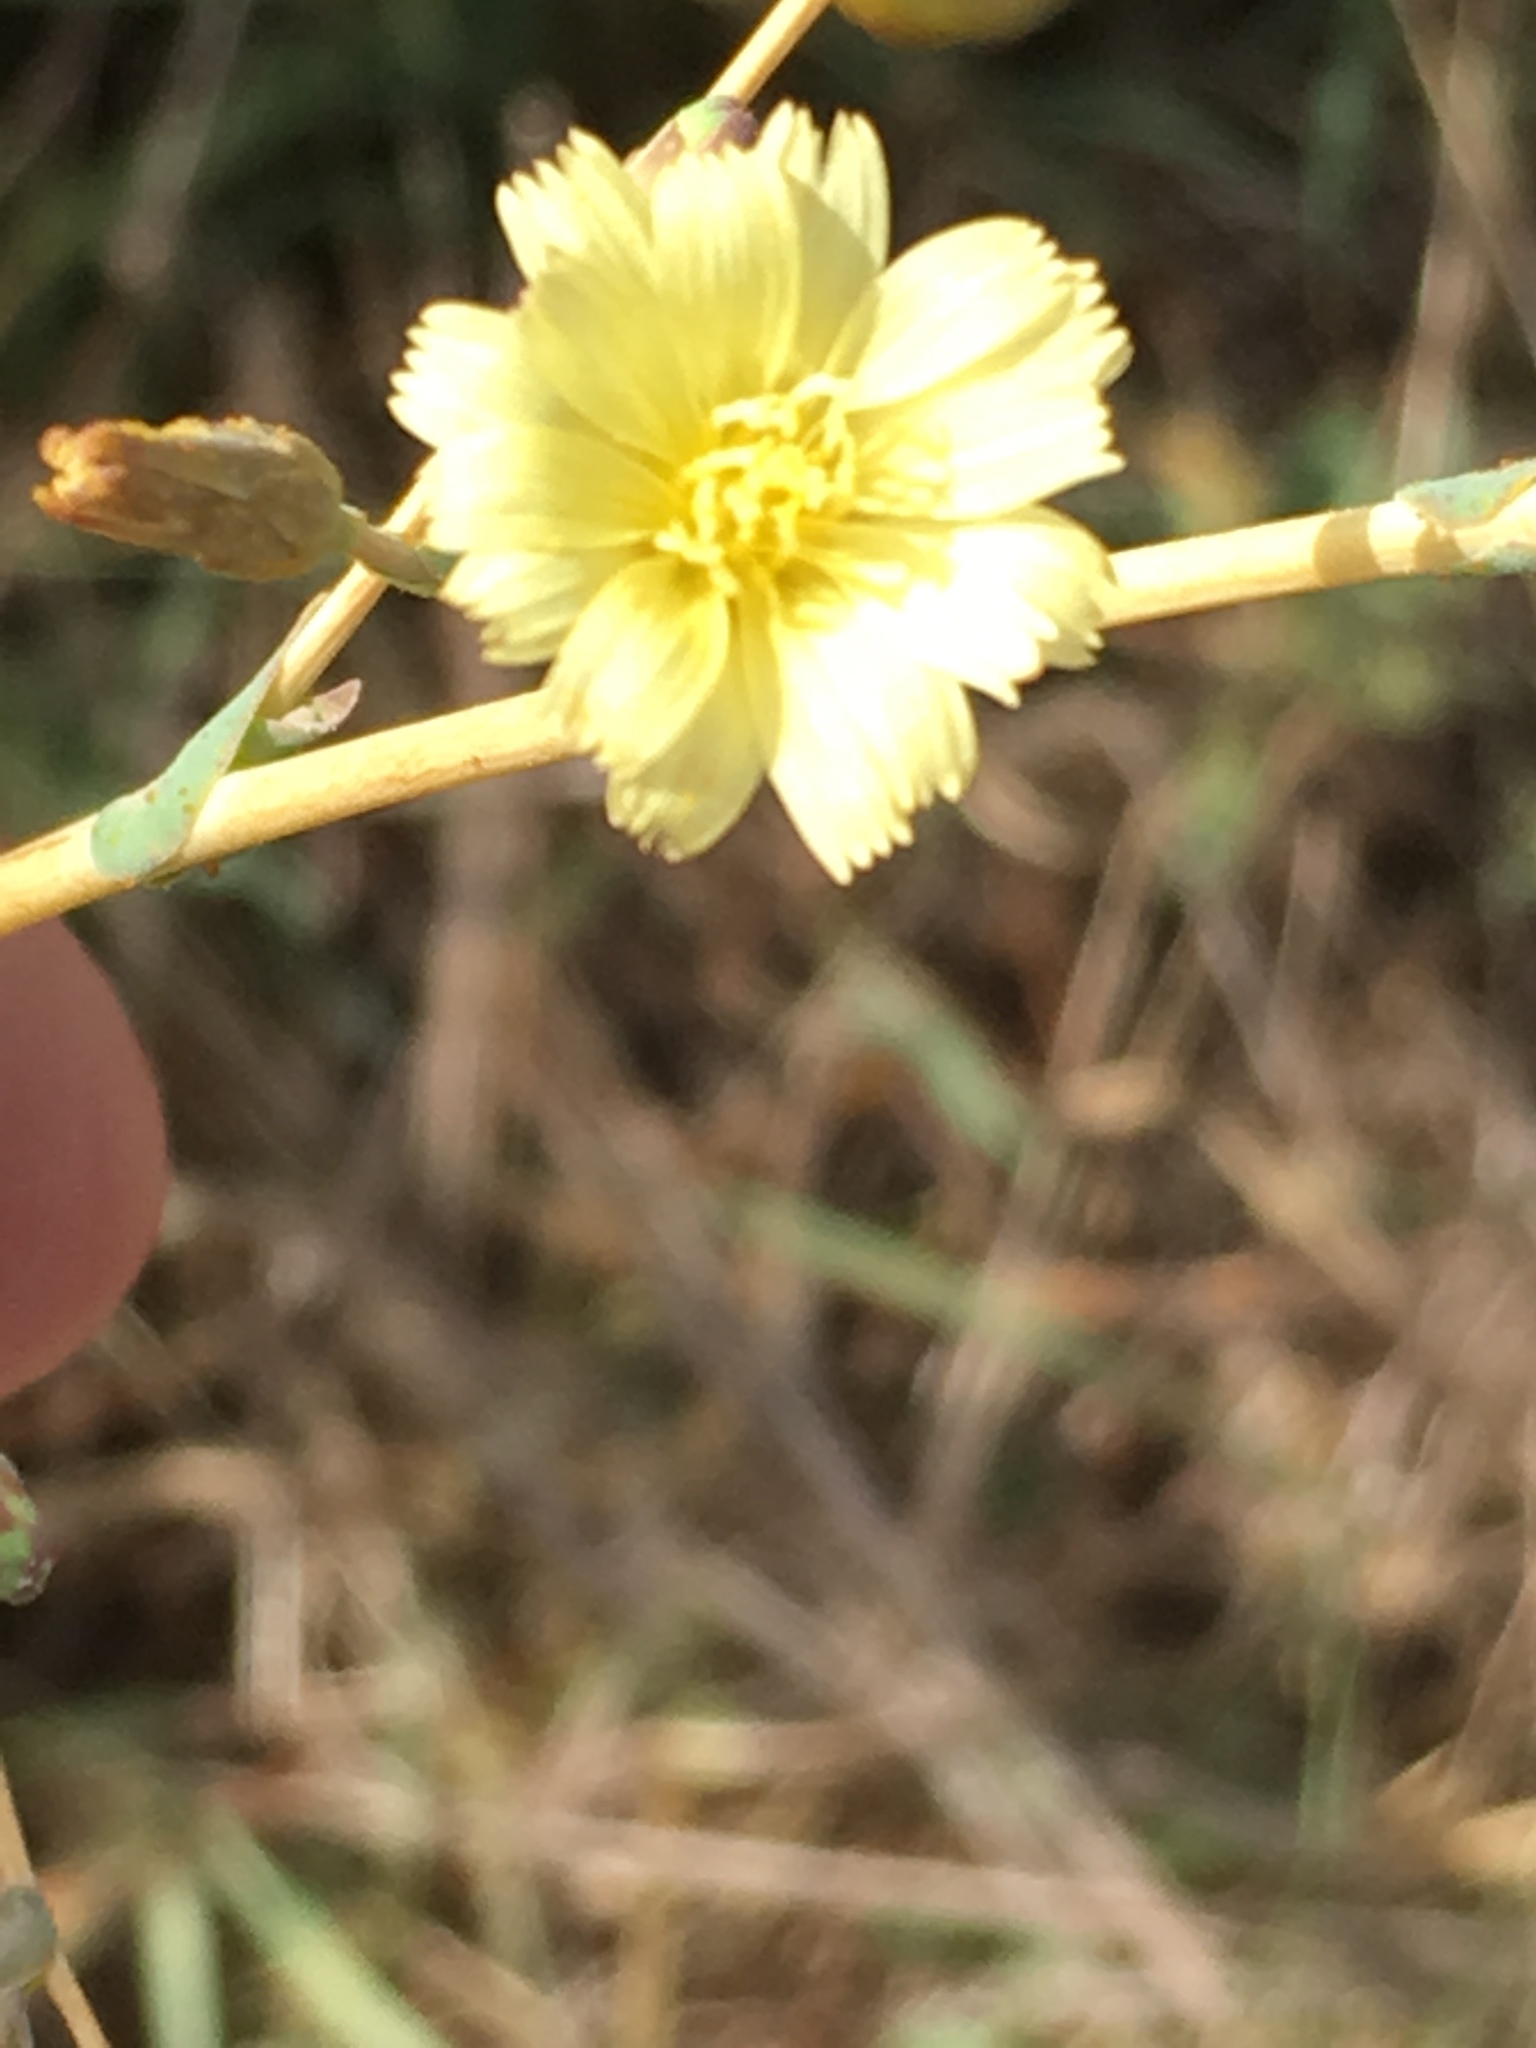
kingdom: Plantae
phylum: Tracheophyta
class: Magnoliopsida
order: Asterales
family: Asteraceae
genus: Lactuca
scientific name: Lactuca serriola
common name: Prickly lettuce
